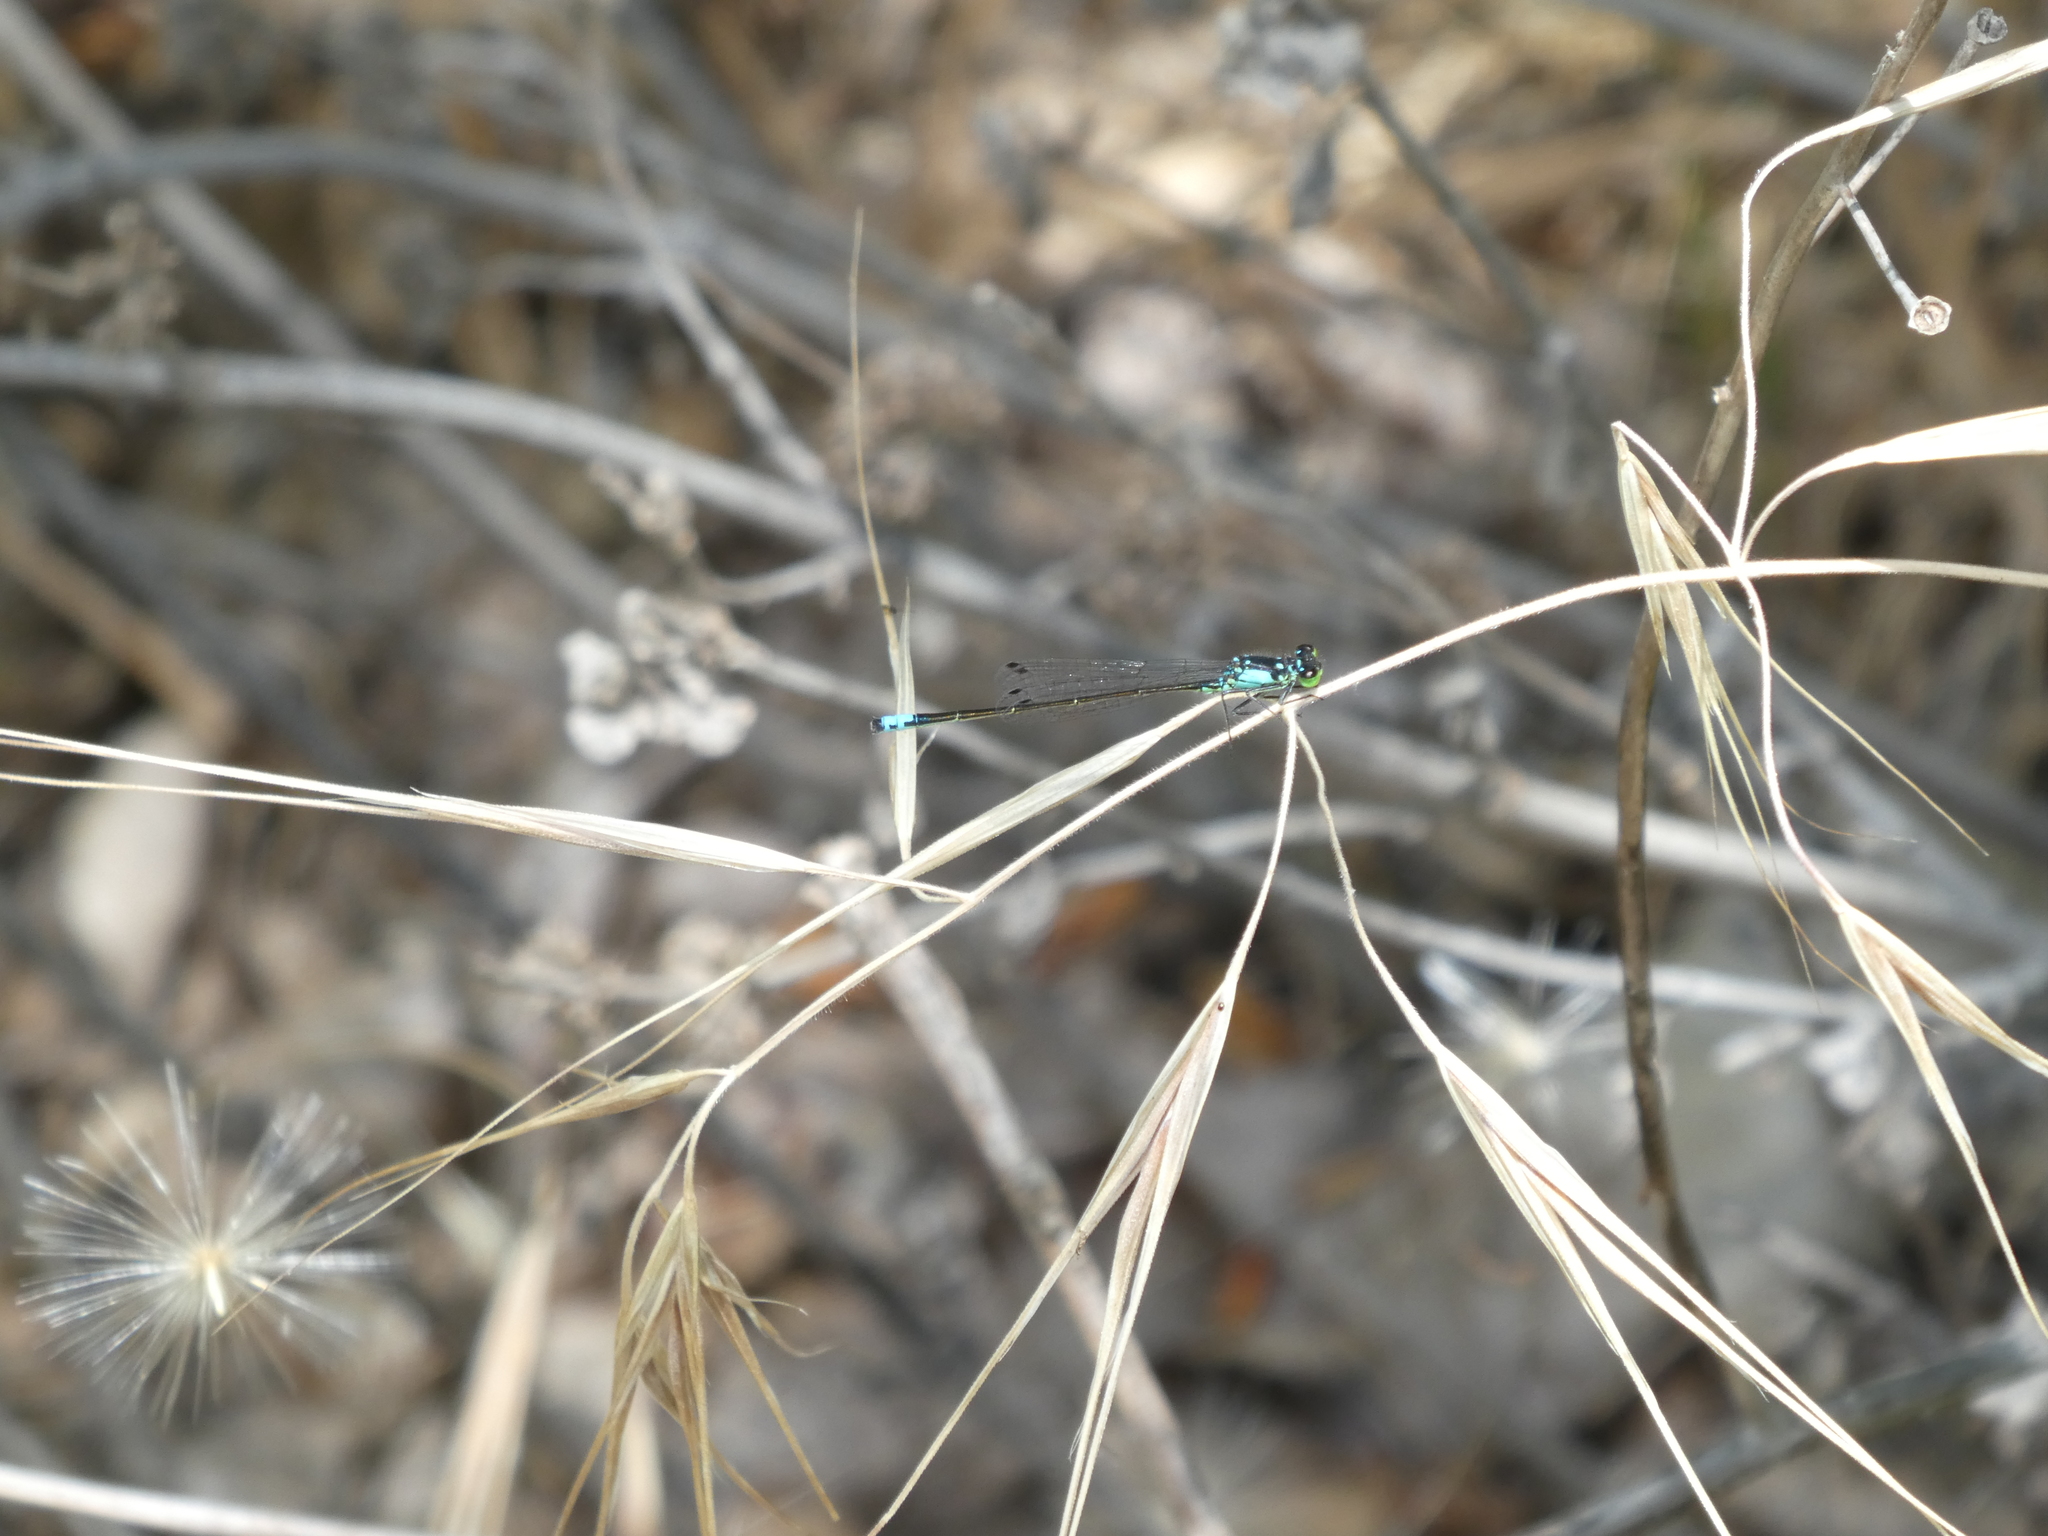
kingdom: Animalia
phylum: Arthropoda
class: Insecta
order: Odonata
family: Coenagrionidae
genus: Ischnura
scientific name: Ischnura cervula
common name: Pacific forktail
